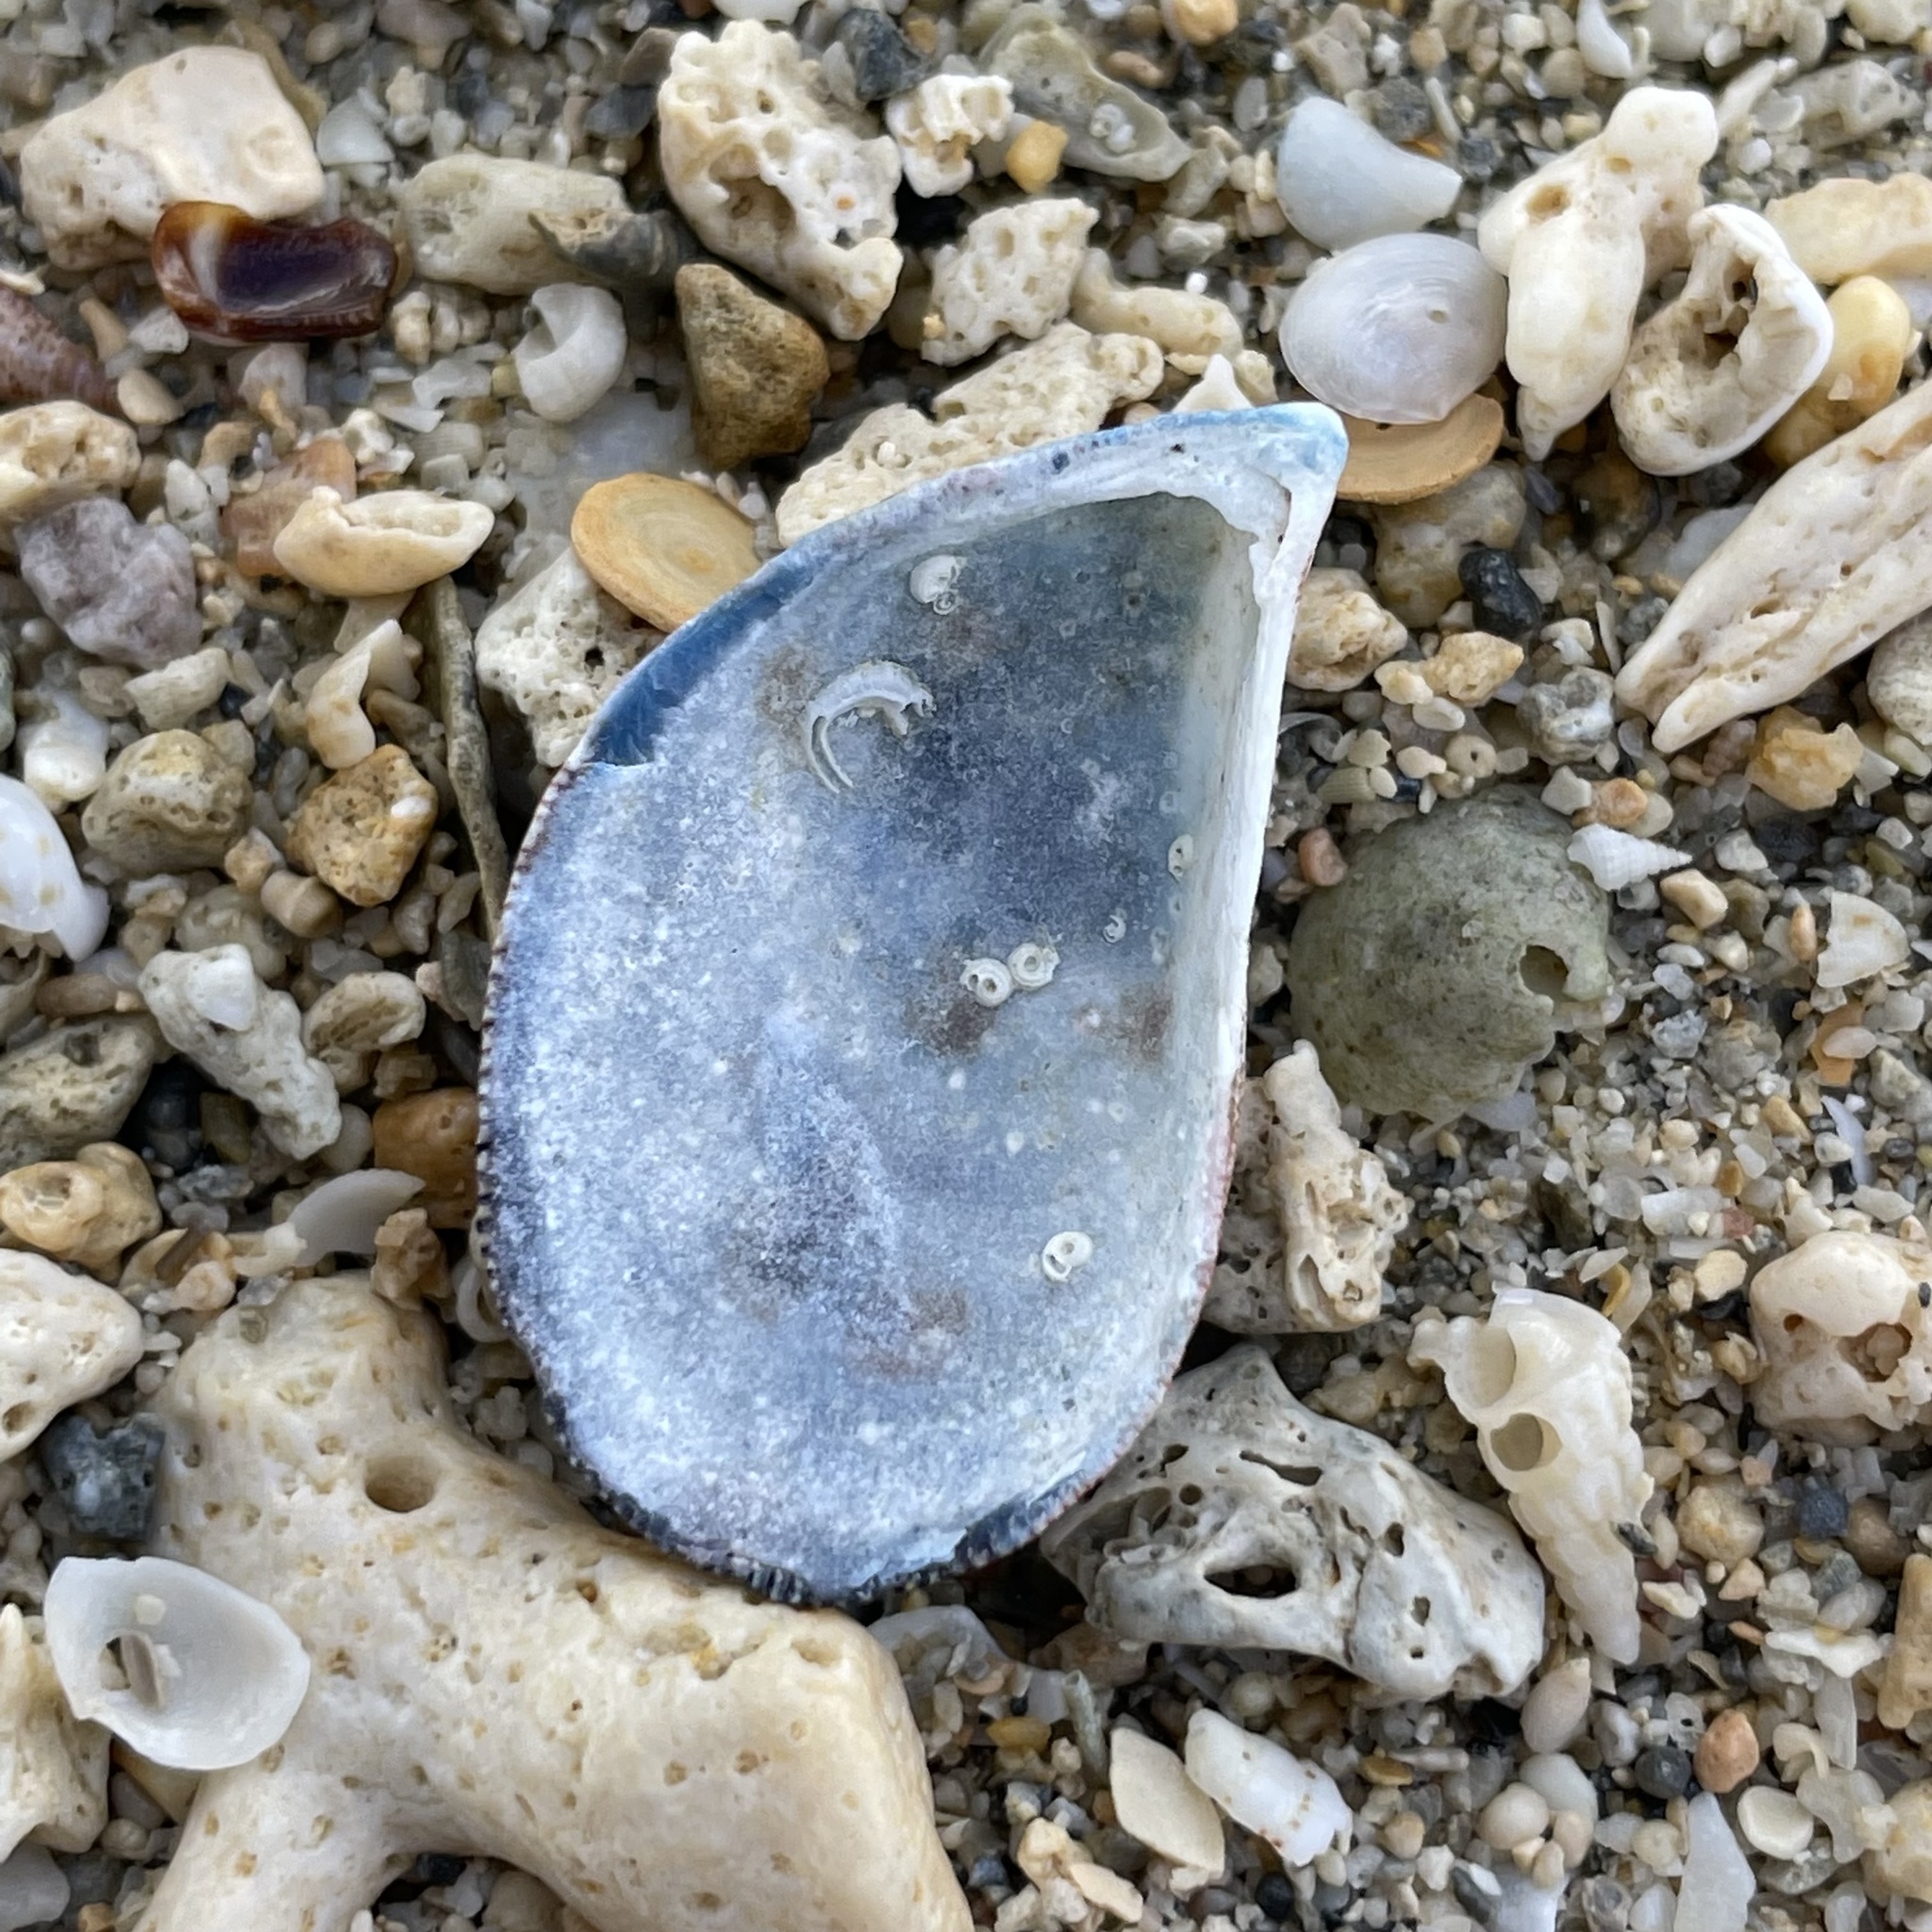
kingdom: Animalia
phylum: Mollusca
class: Bivalvia
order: Mytilida
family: Mytilidae
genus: Septifer
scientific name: Septifer bilocularis
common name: Ledge mussel
